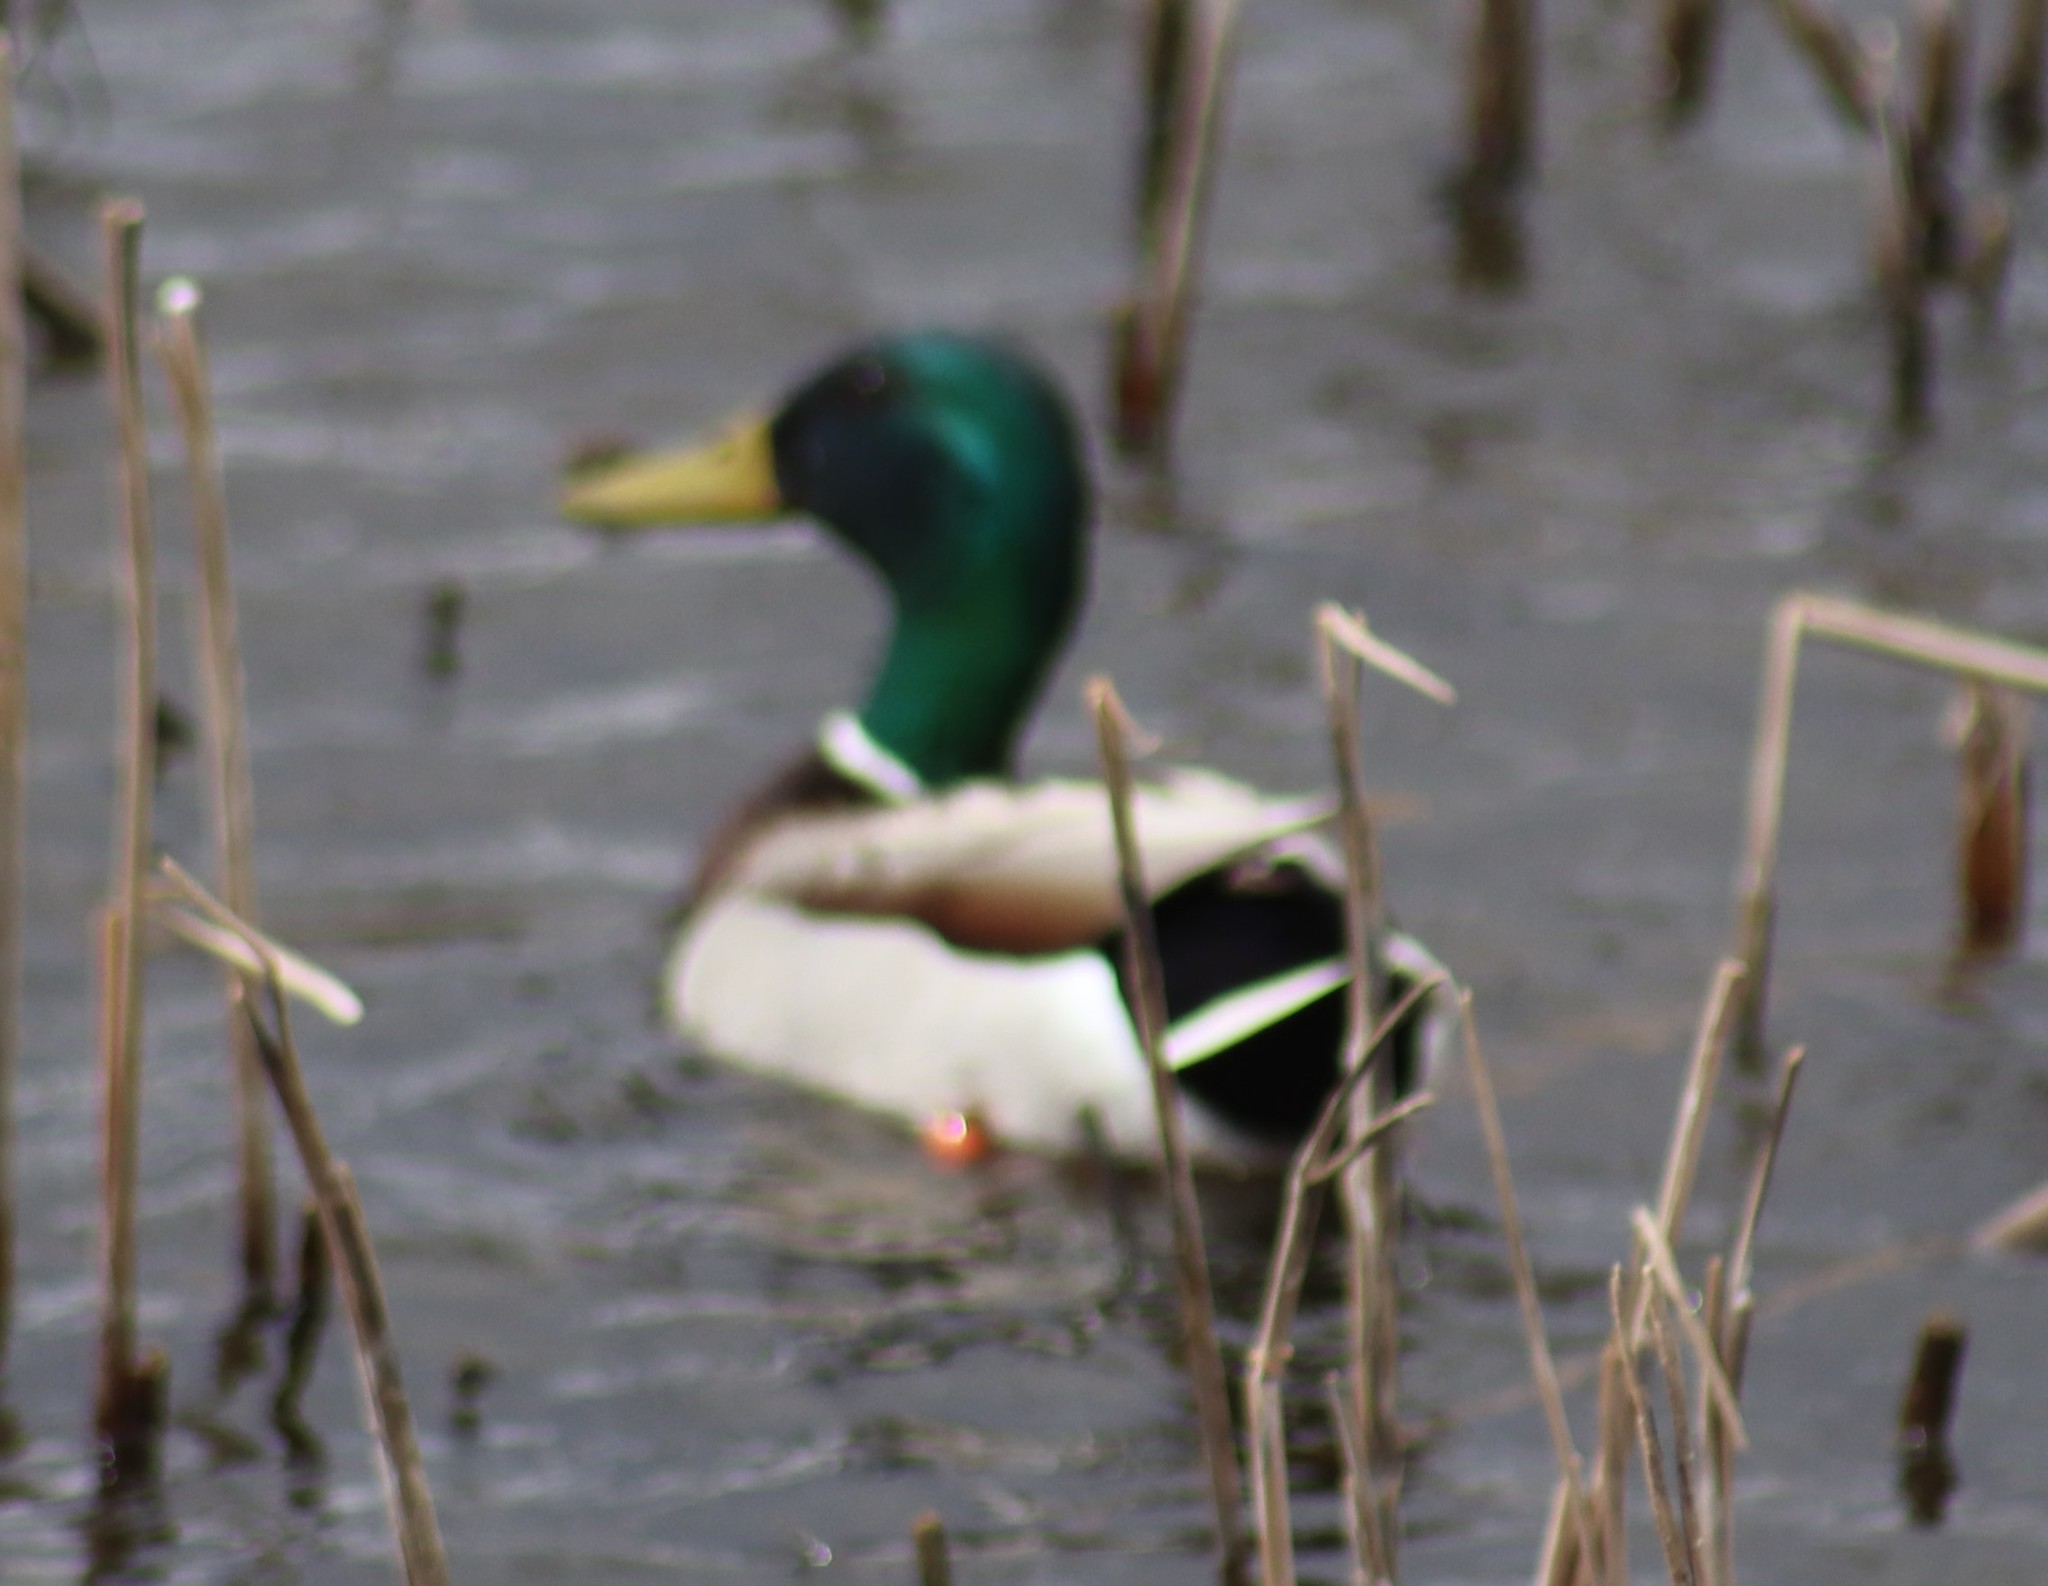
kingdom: Animalia
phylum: Chordata
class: Aves
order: Anseriformes
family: Anatidae
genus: Anas
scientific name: Anas platyrhynchos
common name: Mallard
